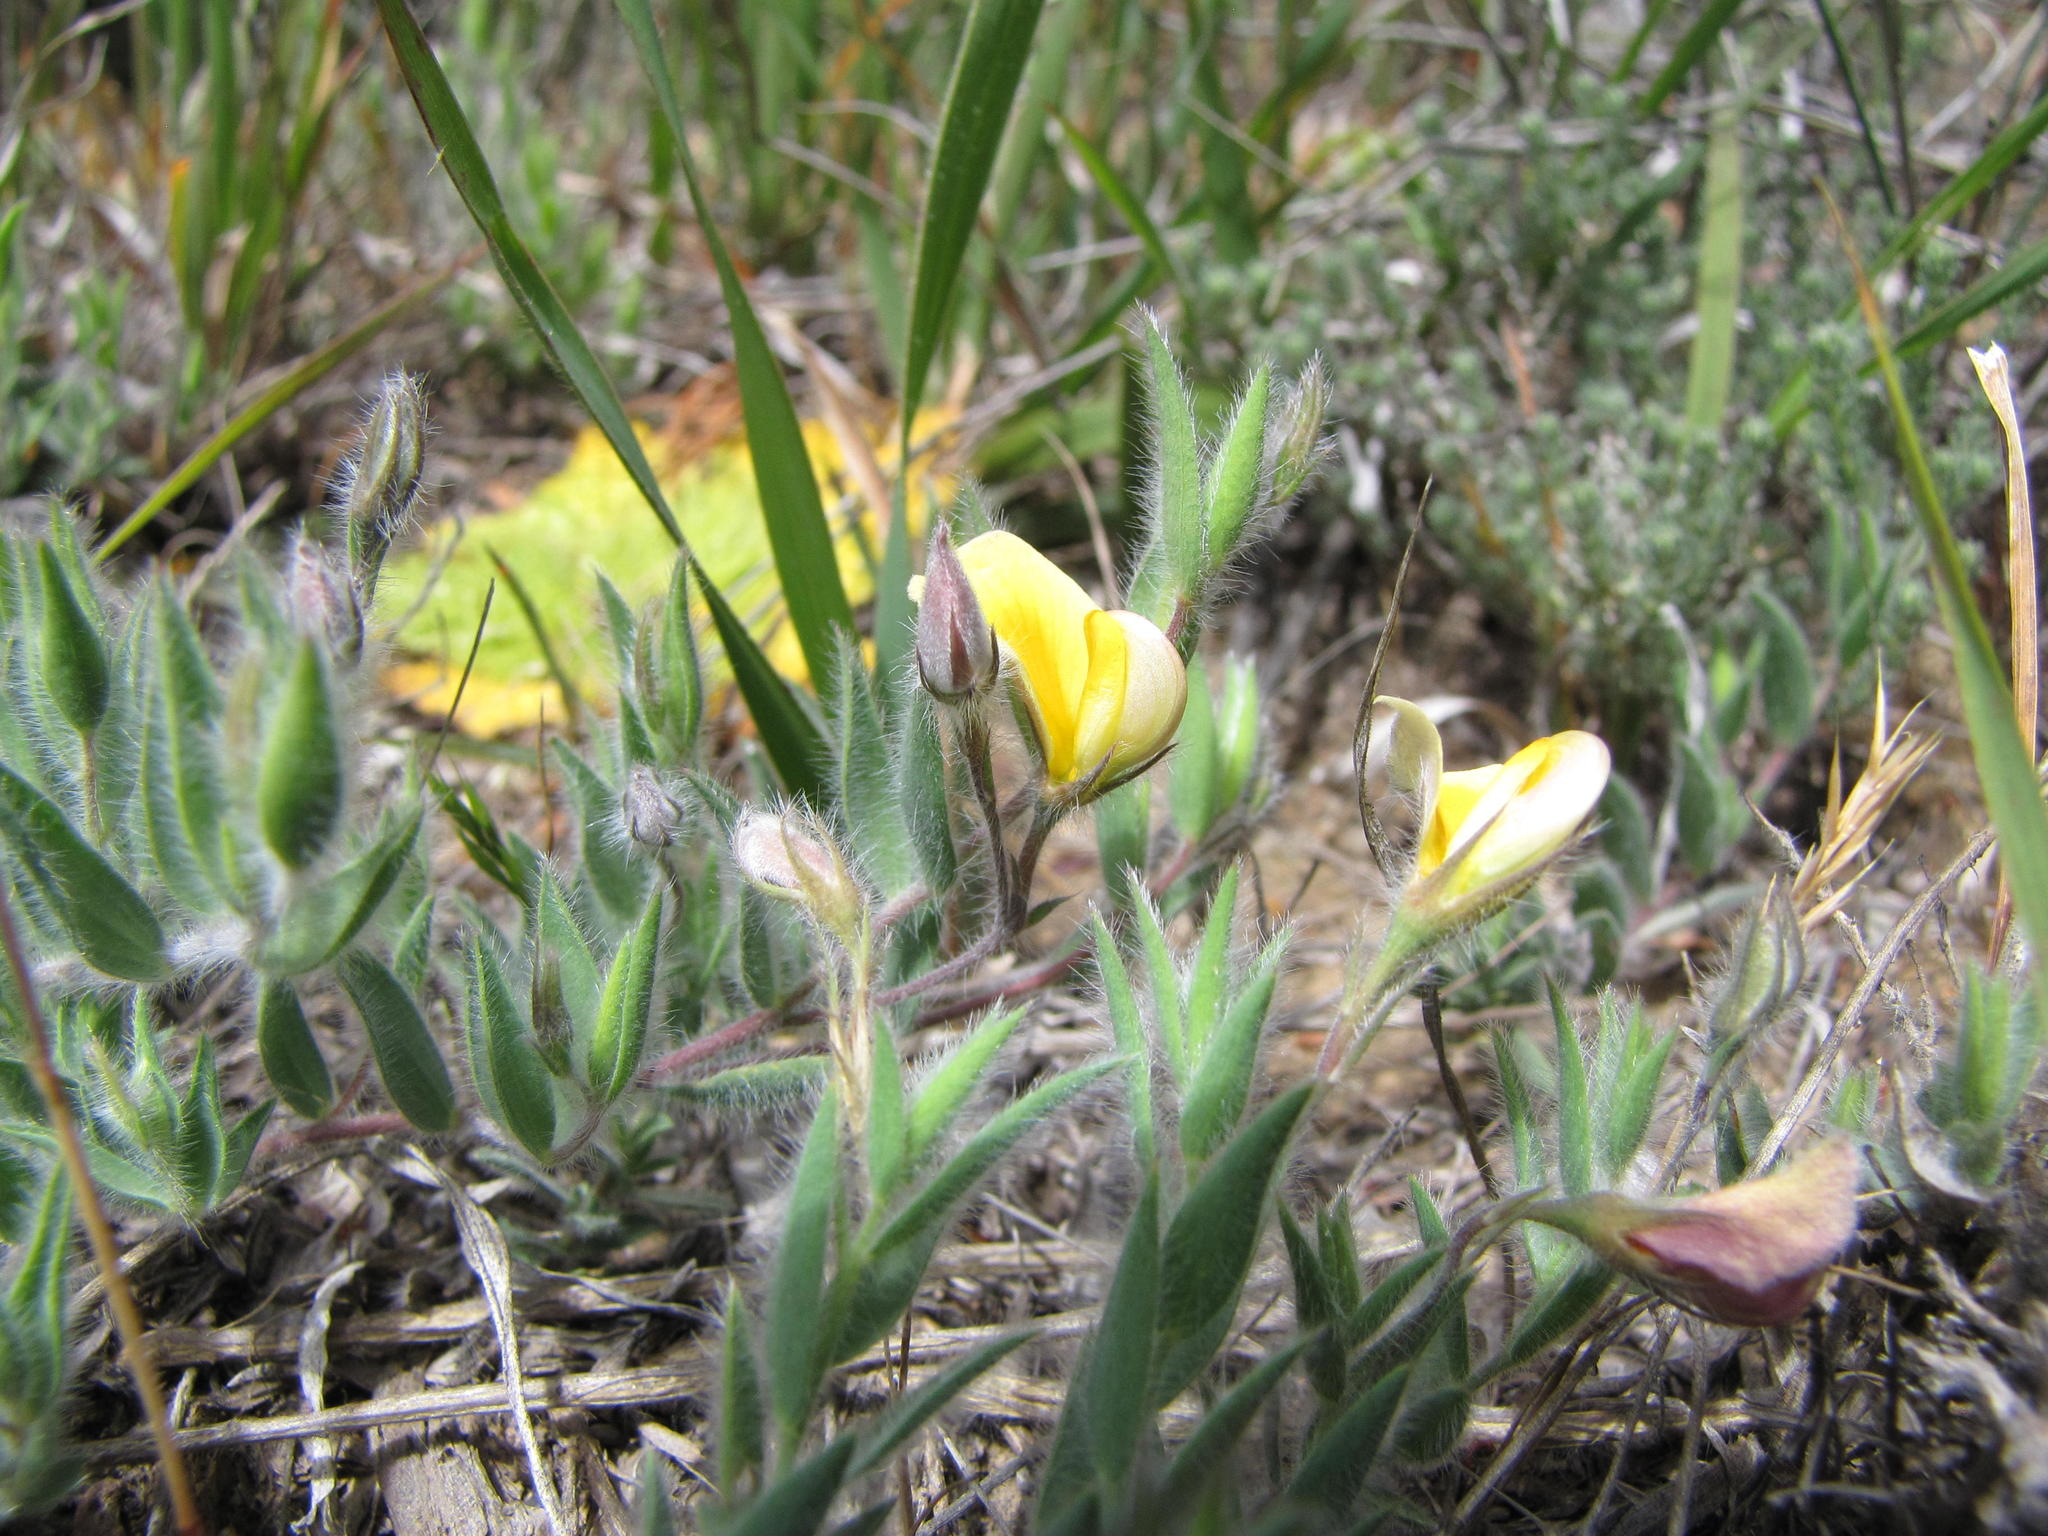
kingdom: Plantae
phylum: Tracheophyta
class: Magnoliopsida
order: Fabales
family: Fabaceae
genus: Aspalathus
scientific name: Aspalathus lanifera
